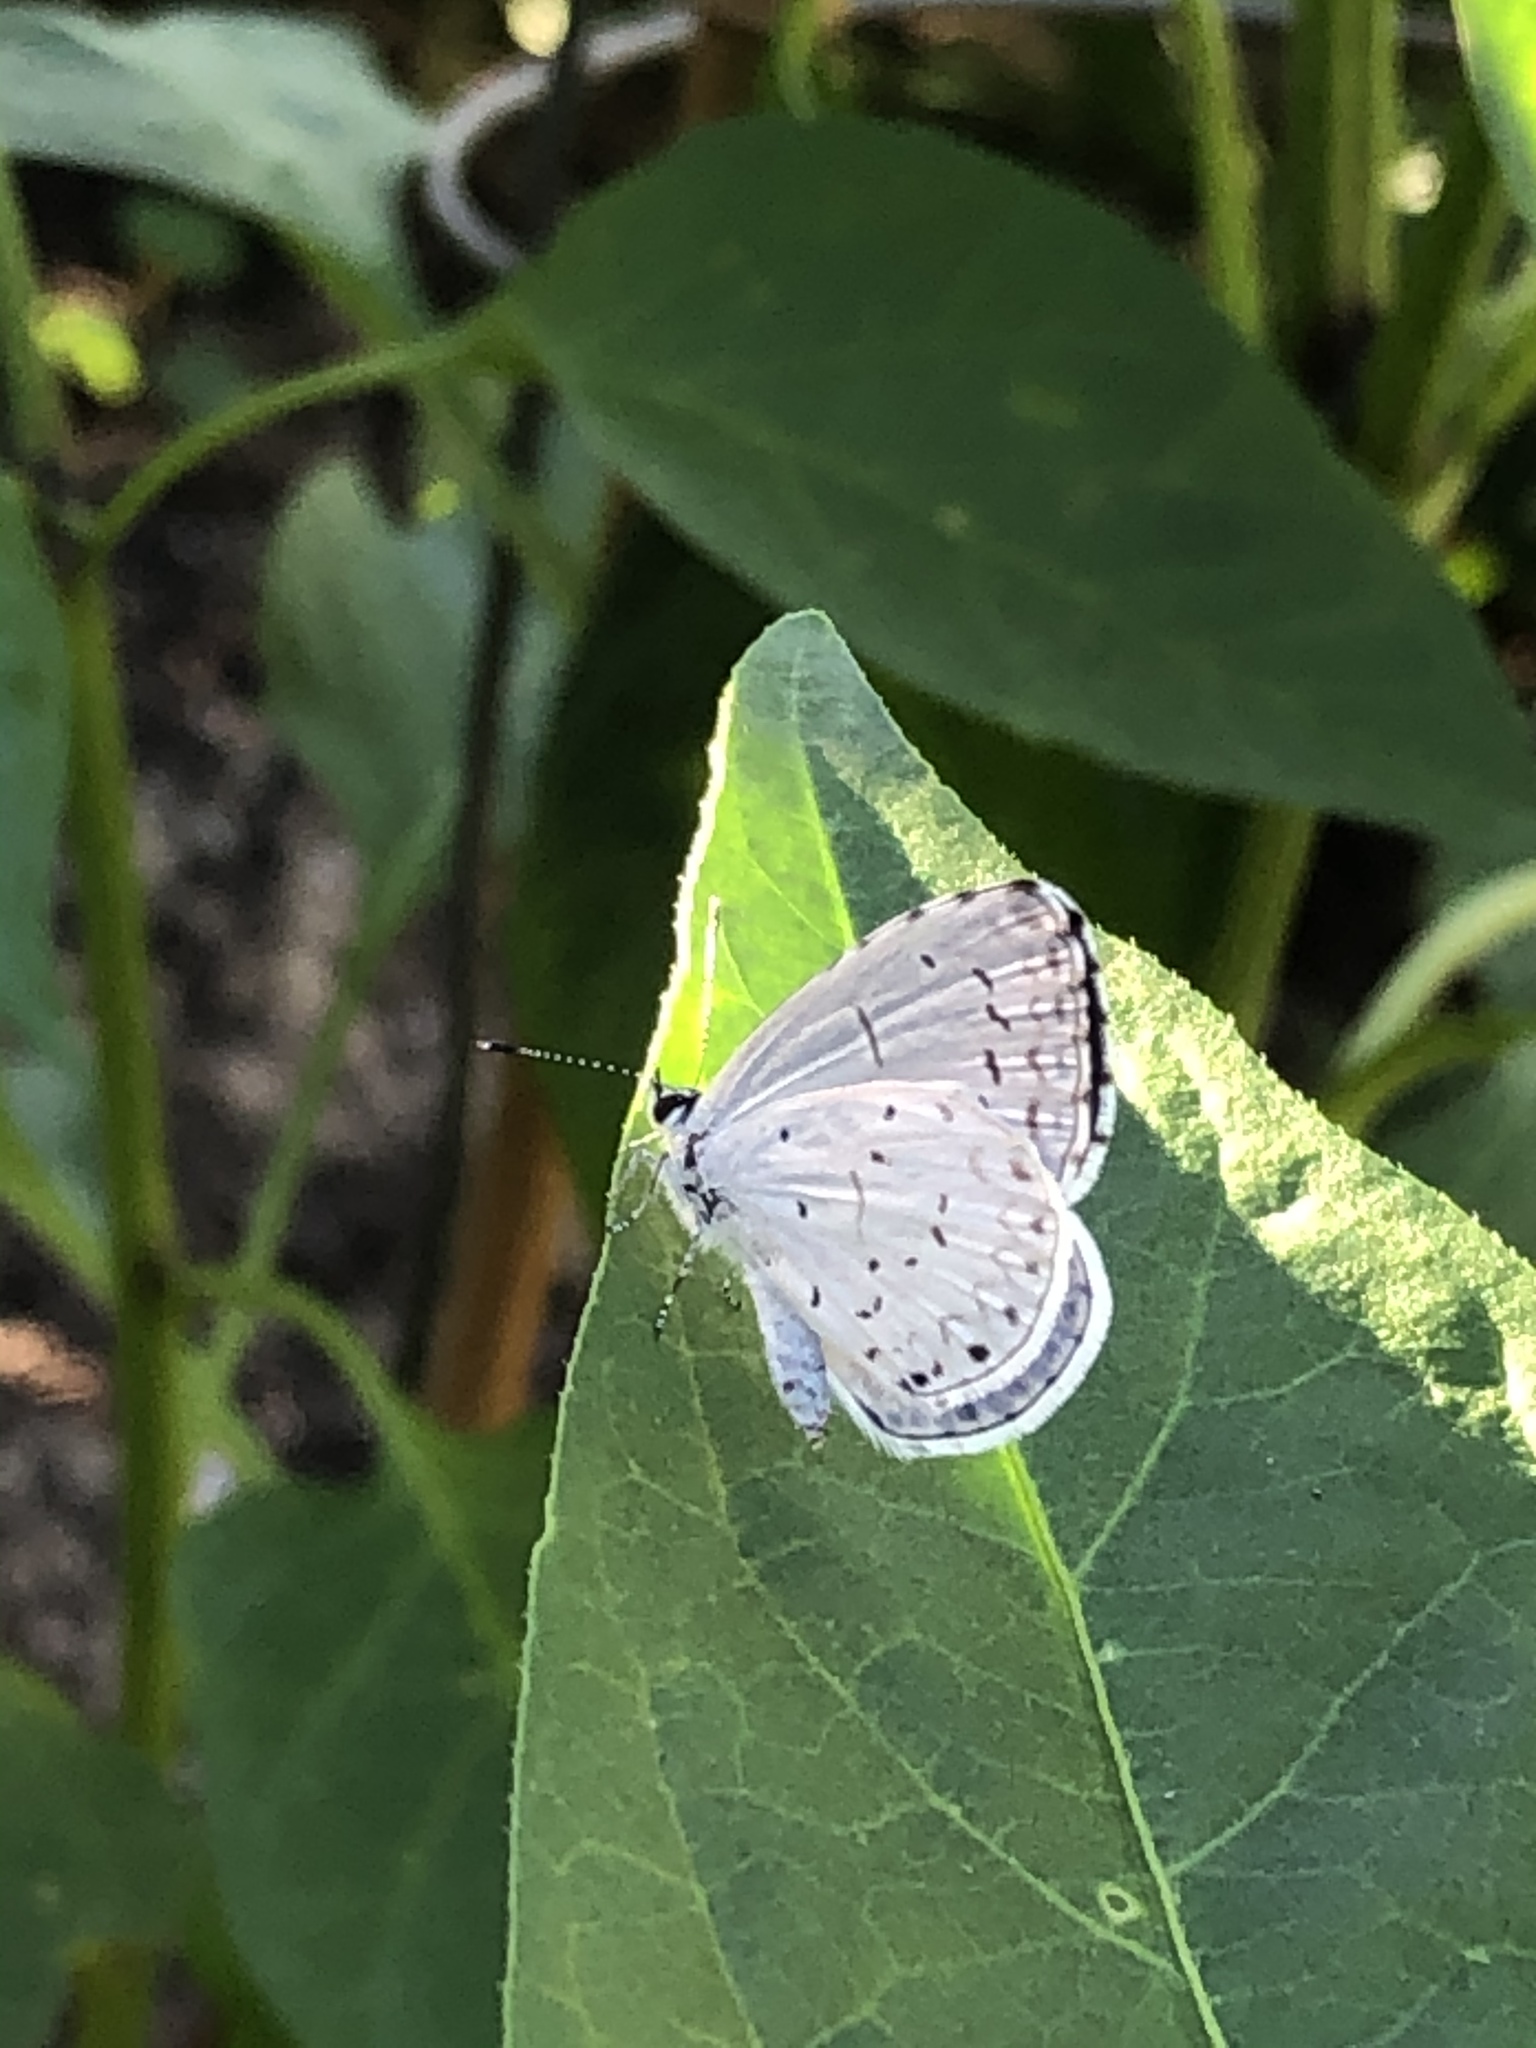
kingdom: Animalia
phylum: Arthropoda
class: Insecta
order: Lepidoptera
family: Lycaenidae
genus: Cyaniris
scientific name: Cyaniris neglecta
